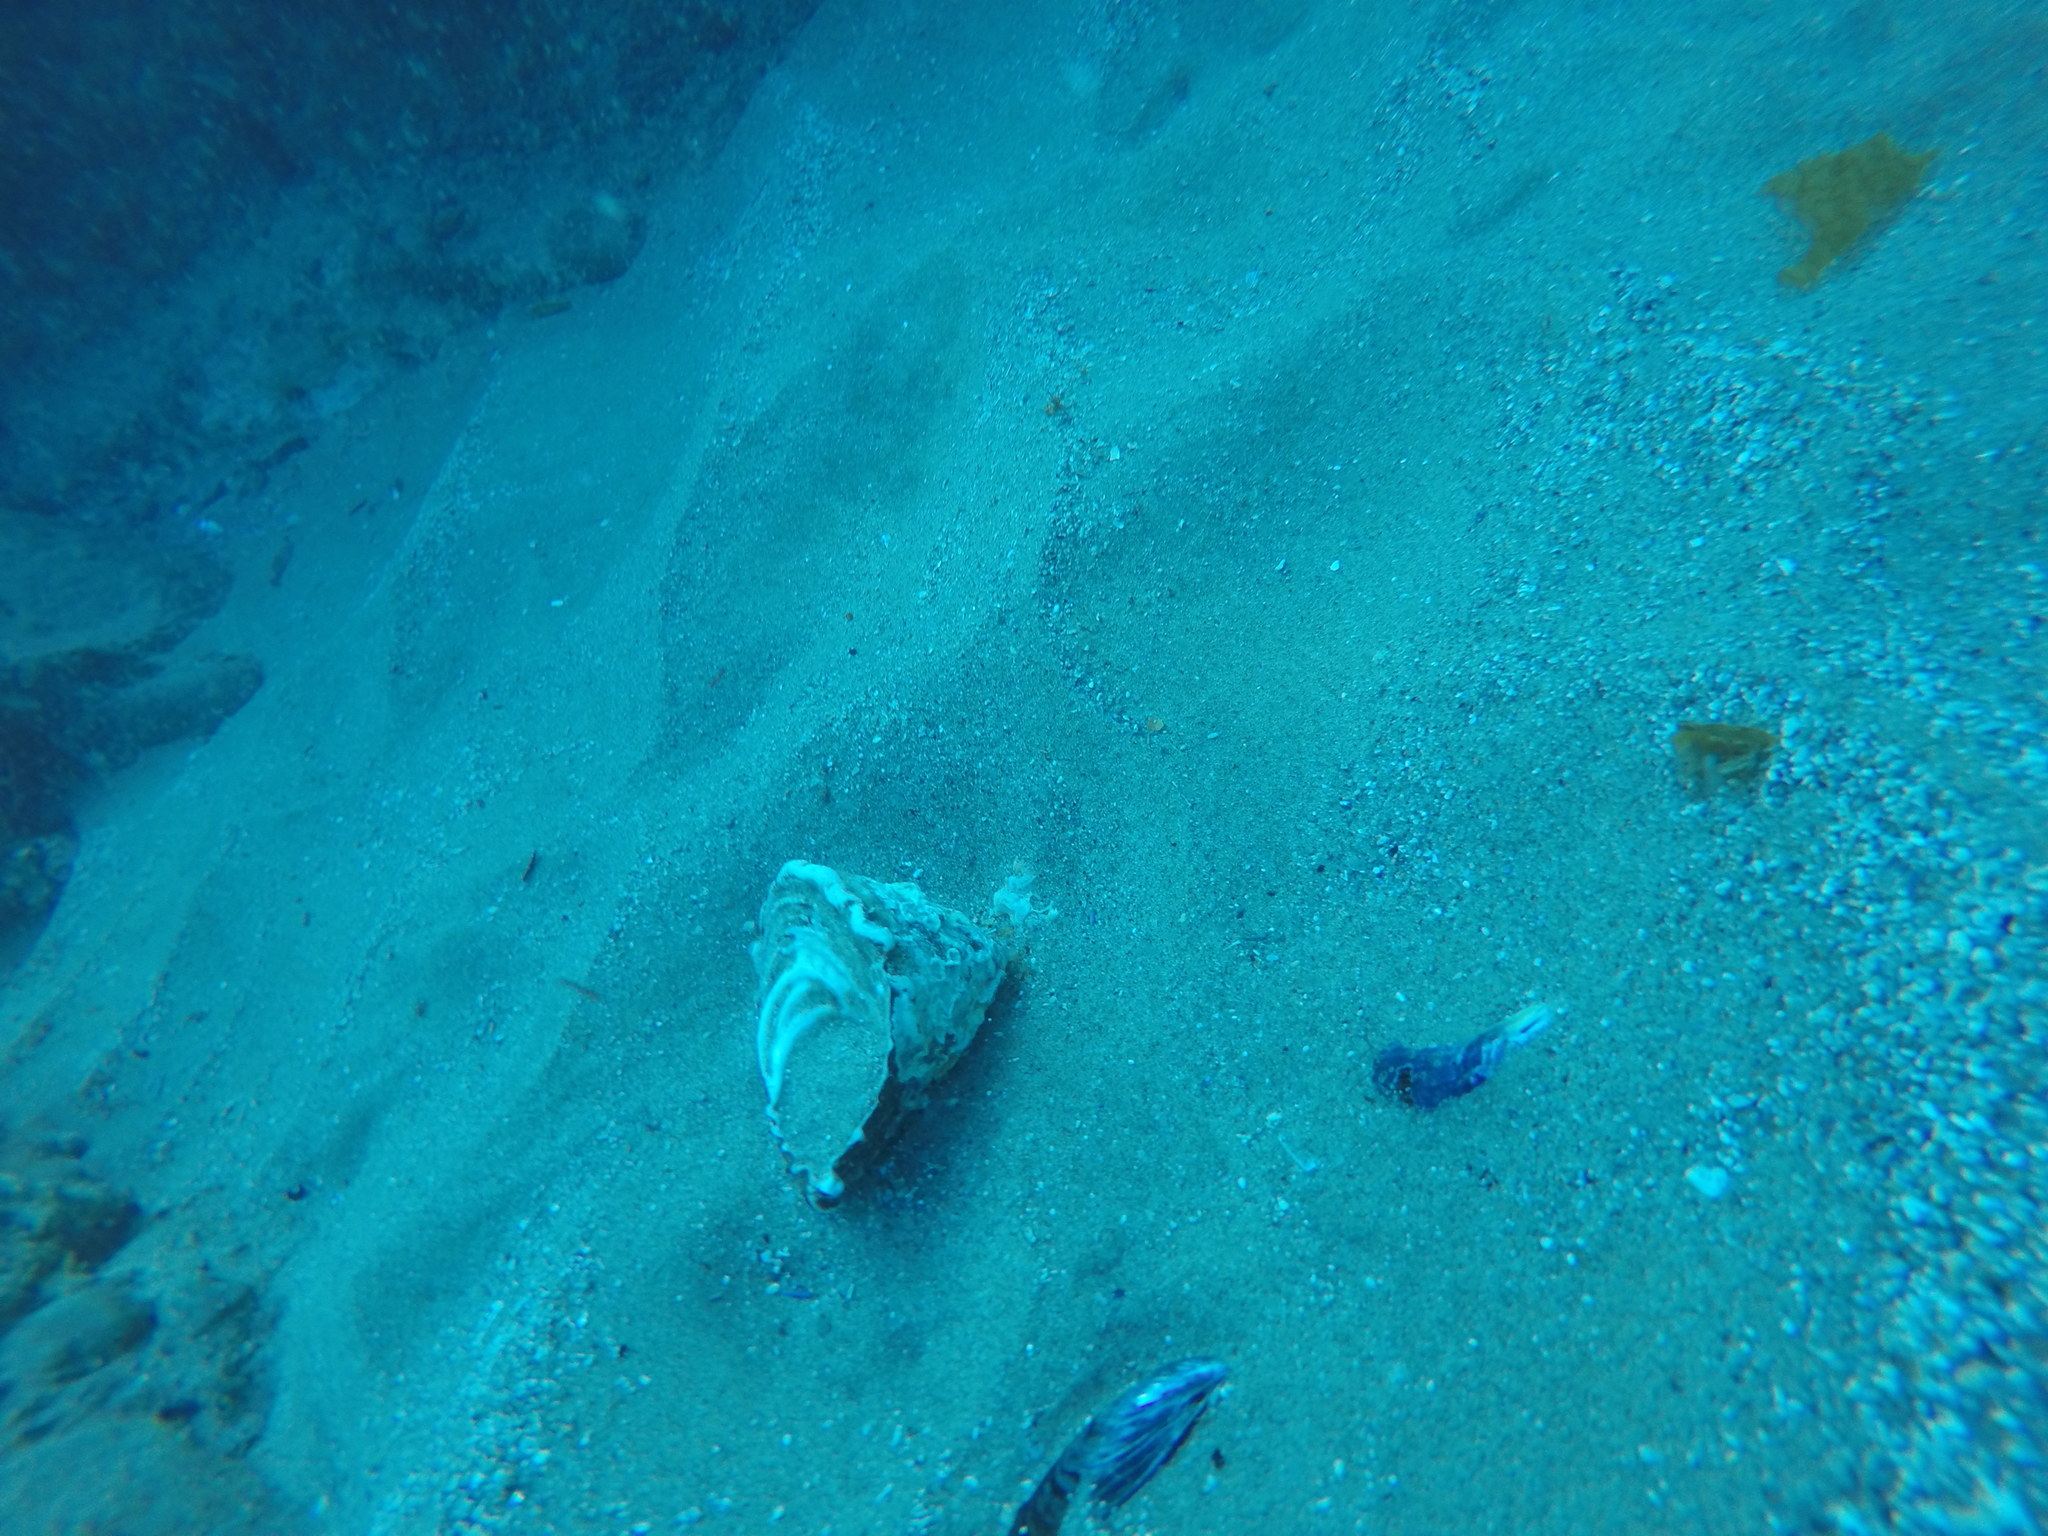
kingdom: Animalia
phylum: Mollusca
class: Gastropoda
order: Trochida
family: Turbinidae
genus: Megastraea
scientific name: Megastraea undosa
